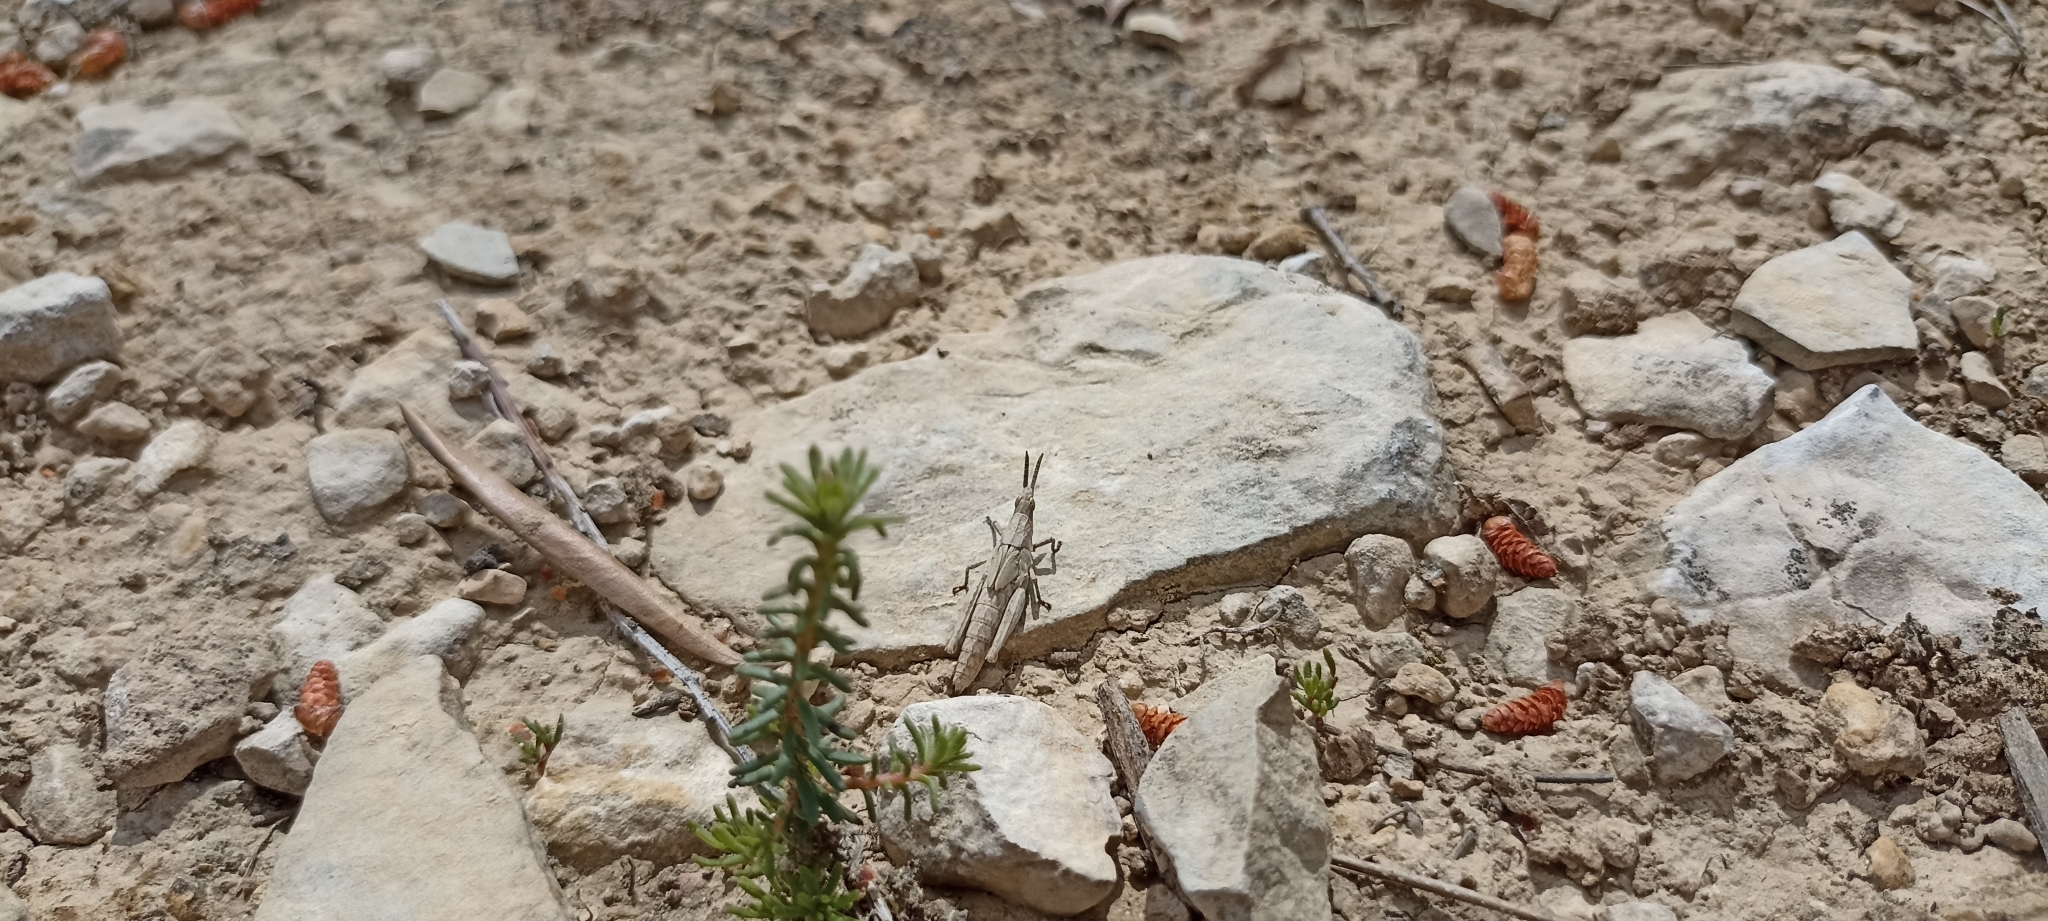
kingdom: Animalia
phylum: Arthropoda
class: Insecta
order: Orthoptera
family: Pyrgomorphidae
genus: Pyrgomorpha
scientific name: Pyrgomorpha conica
